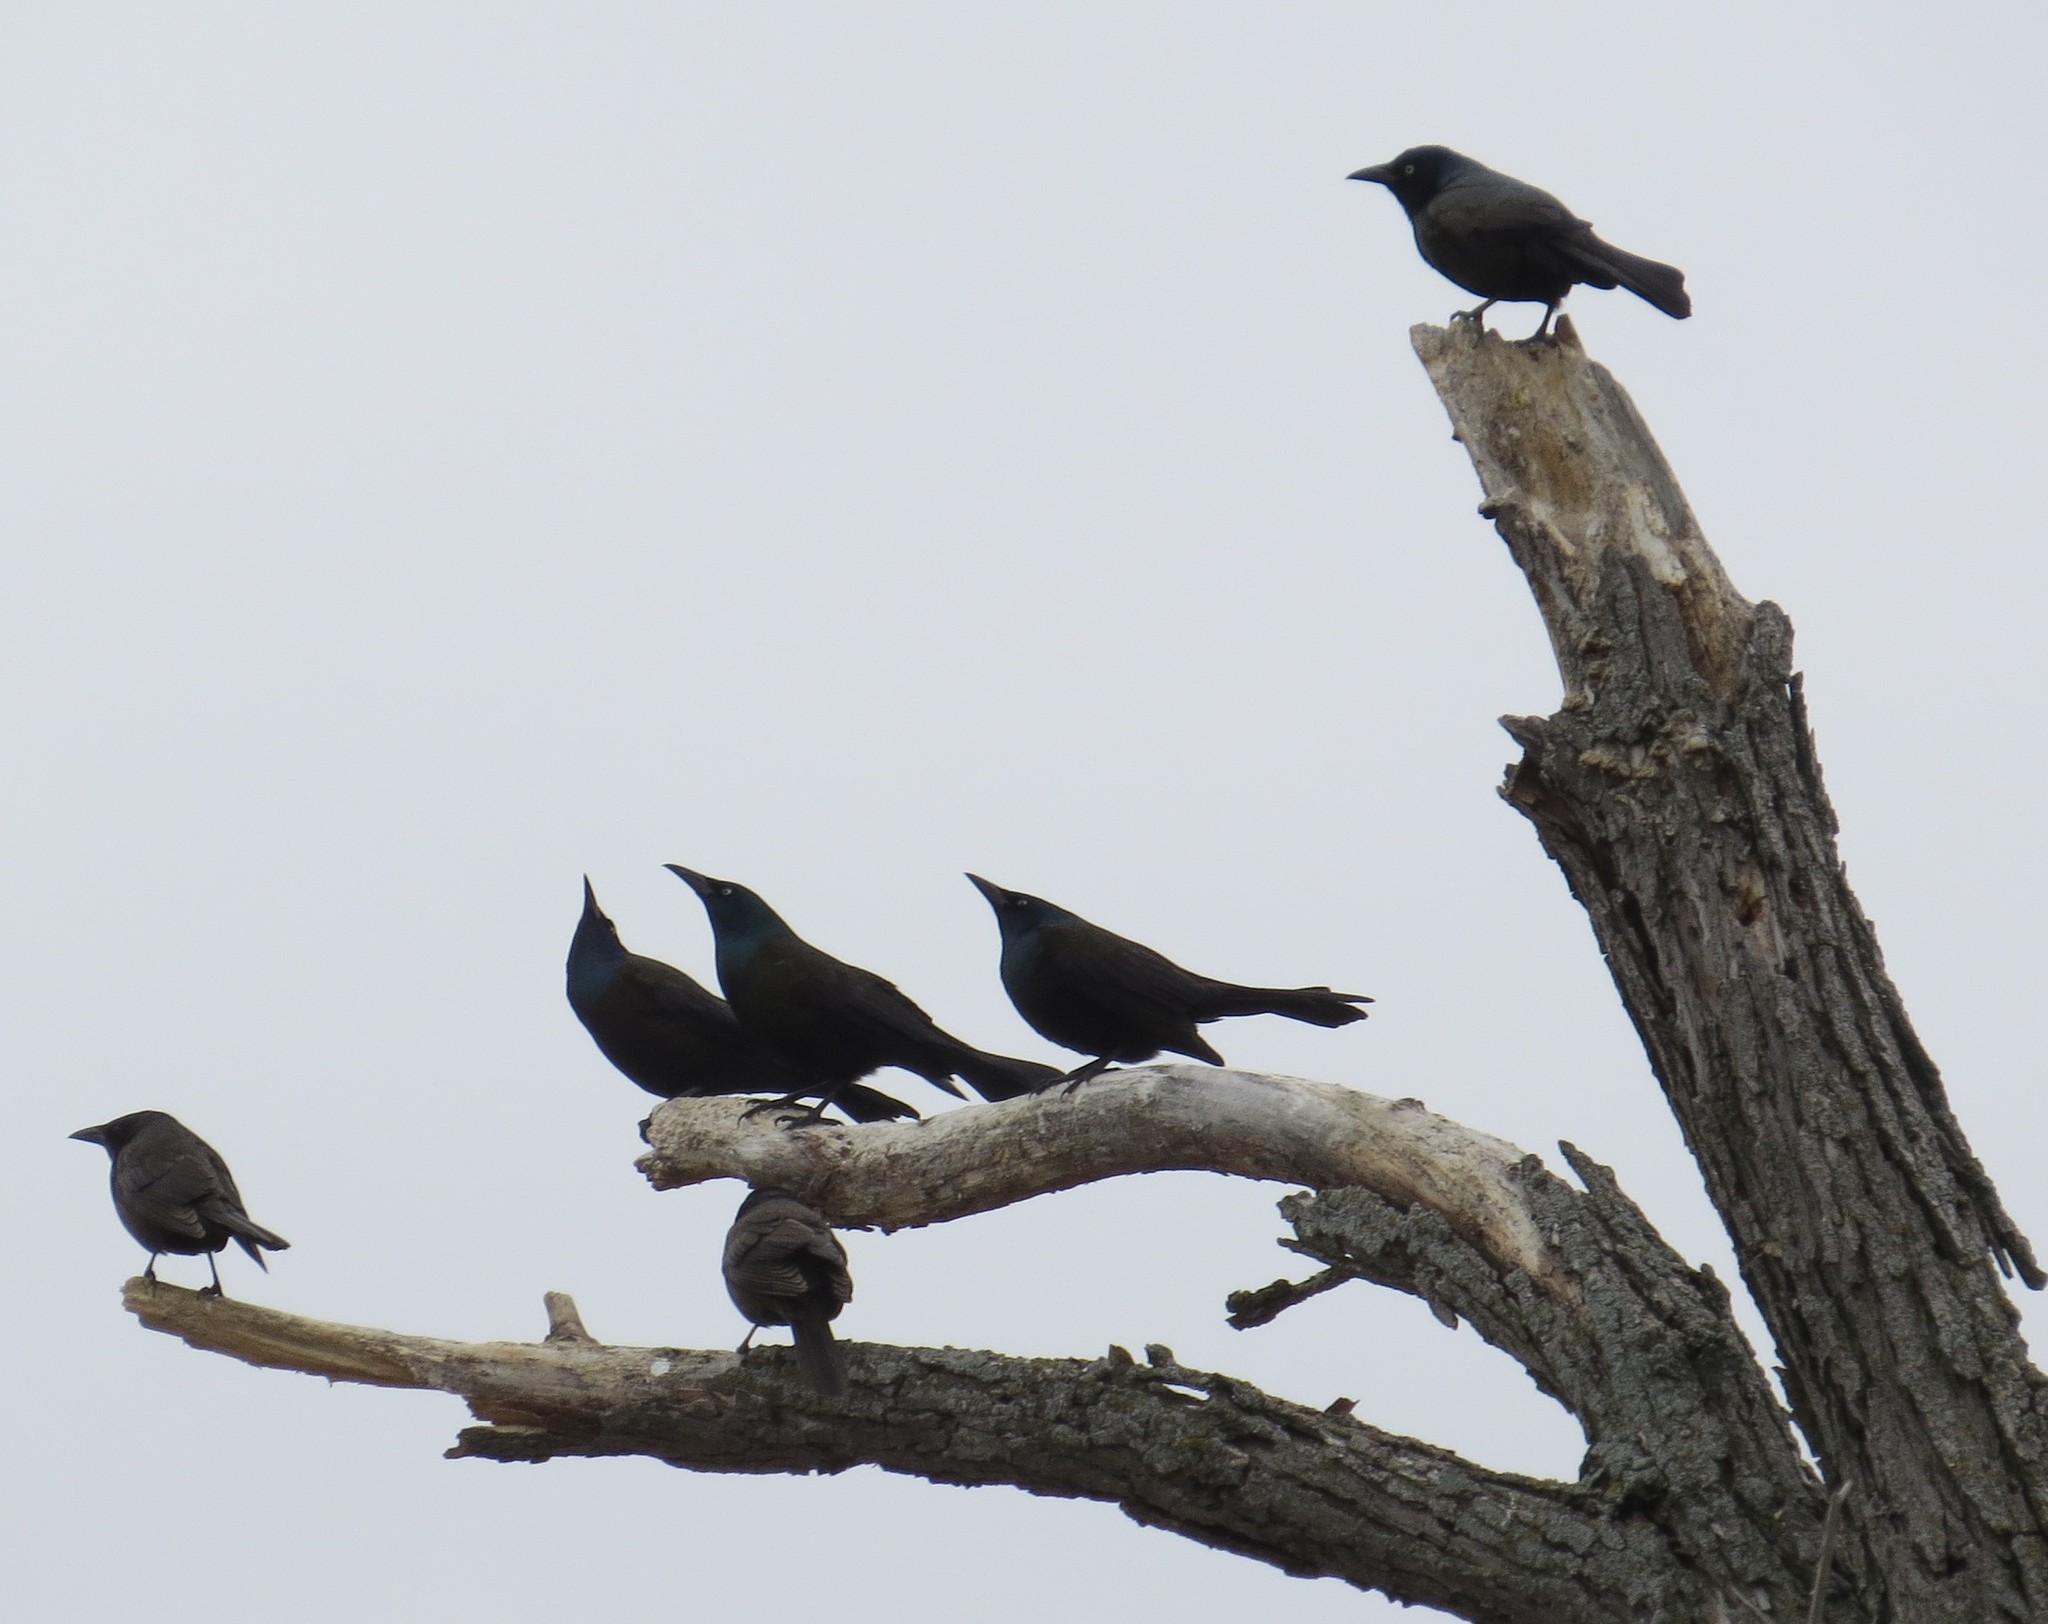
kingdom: Animalia
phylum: Chordata
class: Aves
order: Passeriformes
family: Icteridae
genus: Quiscalus
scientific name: Quiscalus quiscula
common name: Common grackle
